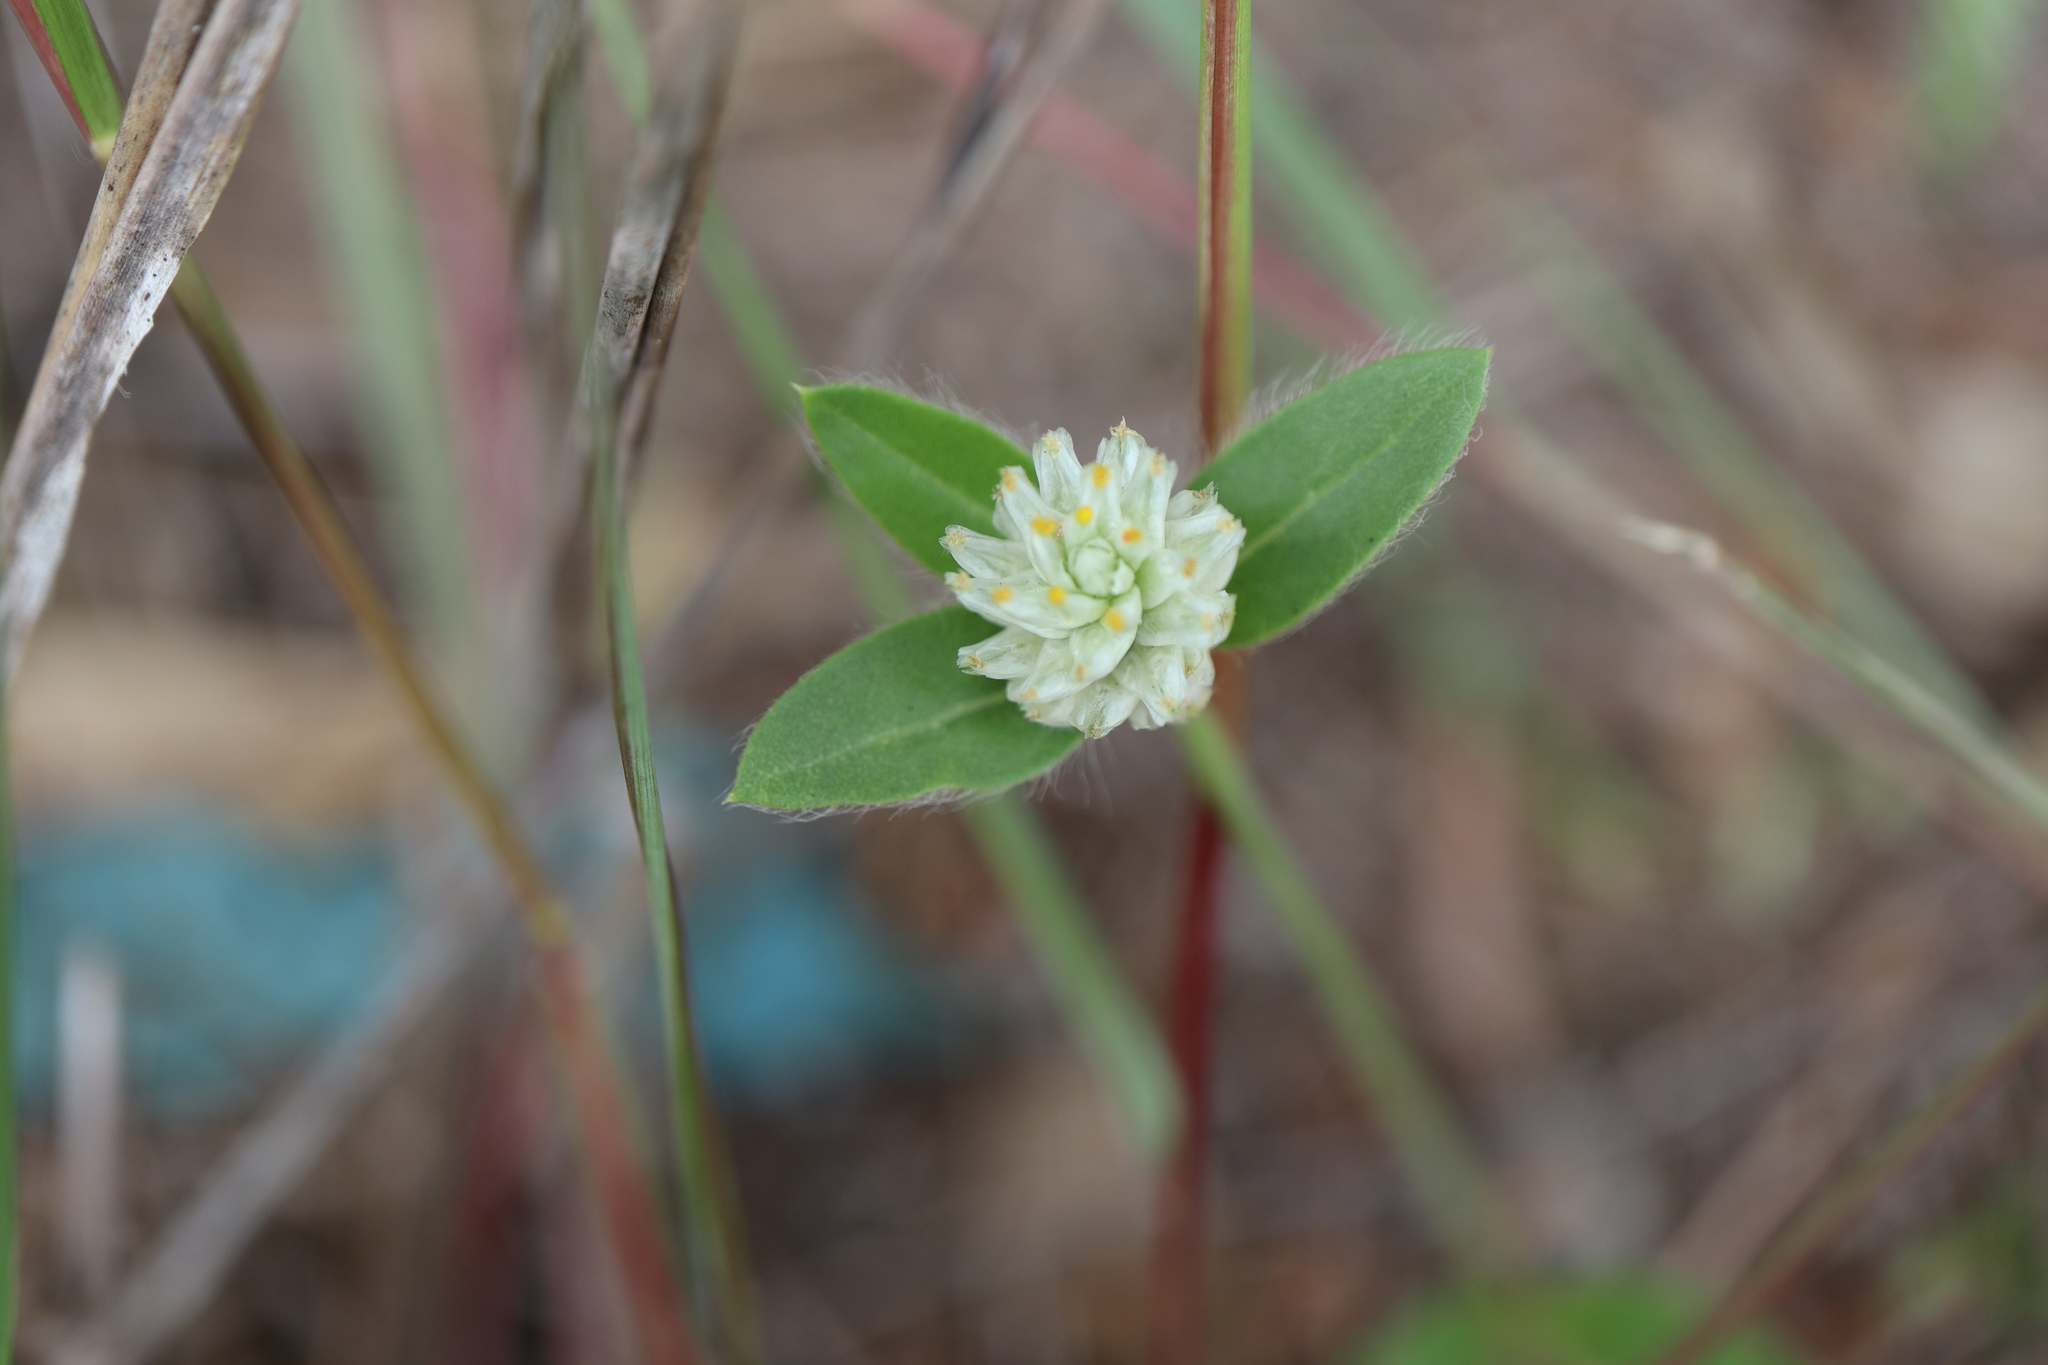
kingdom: Plantae
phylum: Tracheophyta
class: Magnoliopsida
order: Caryophyllales
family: Amaranthaceae
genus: Gomphrena
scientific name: Gomphrena celosioides
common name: Gomphrena-weed
